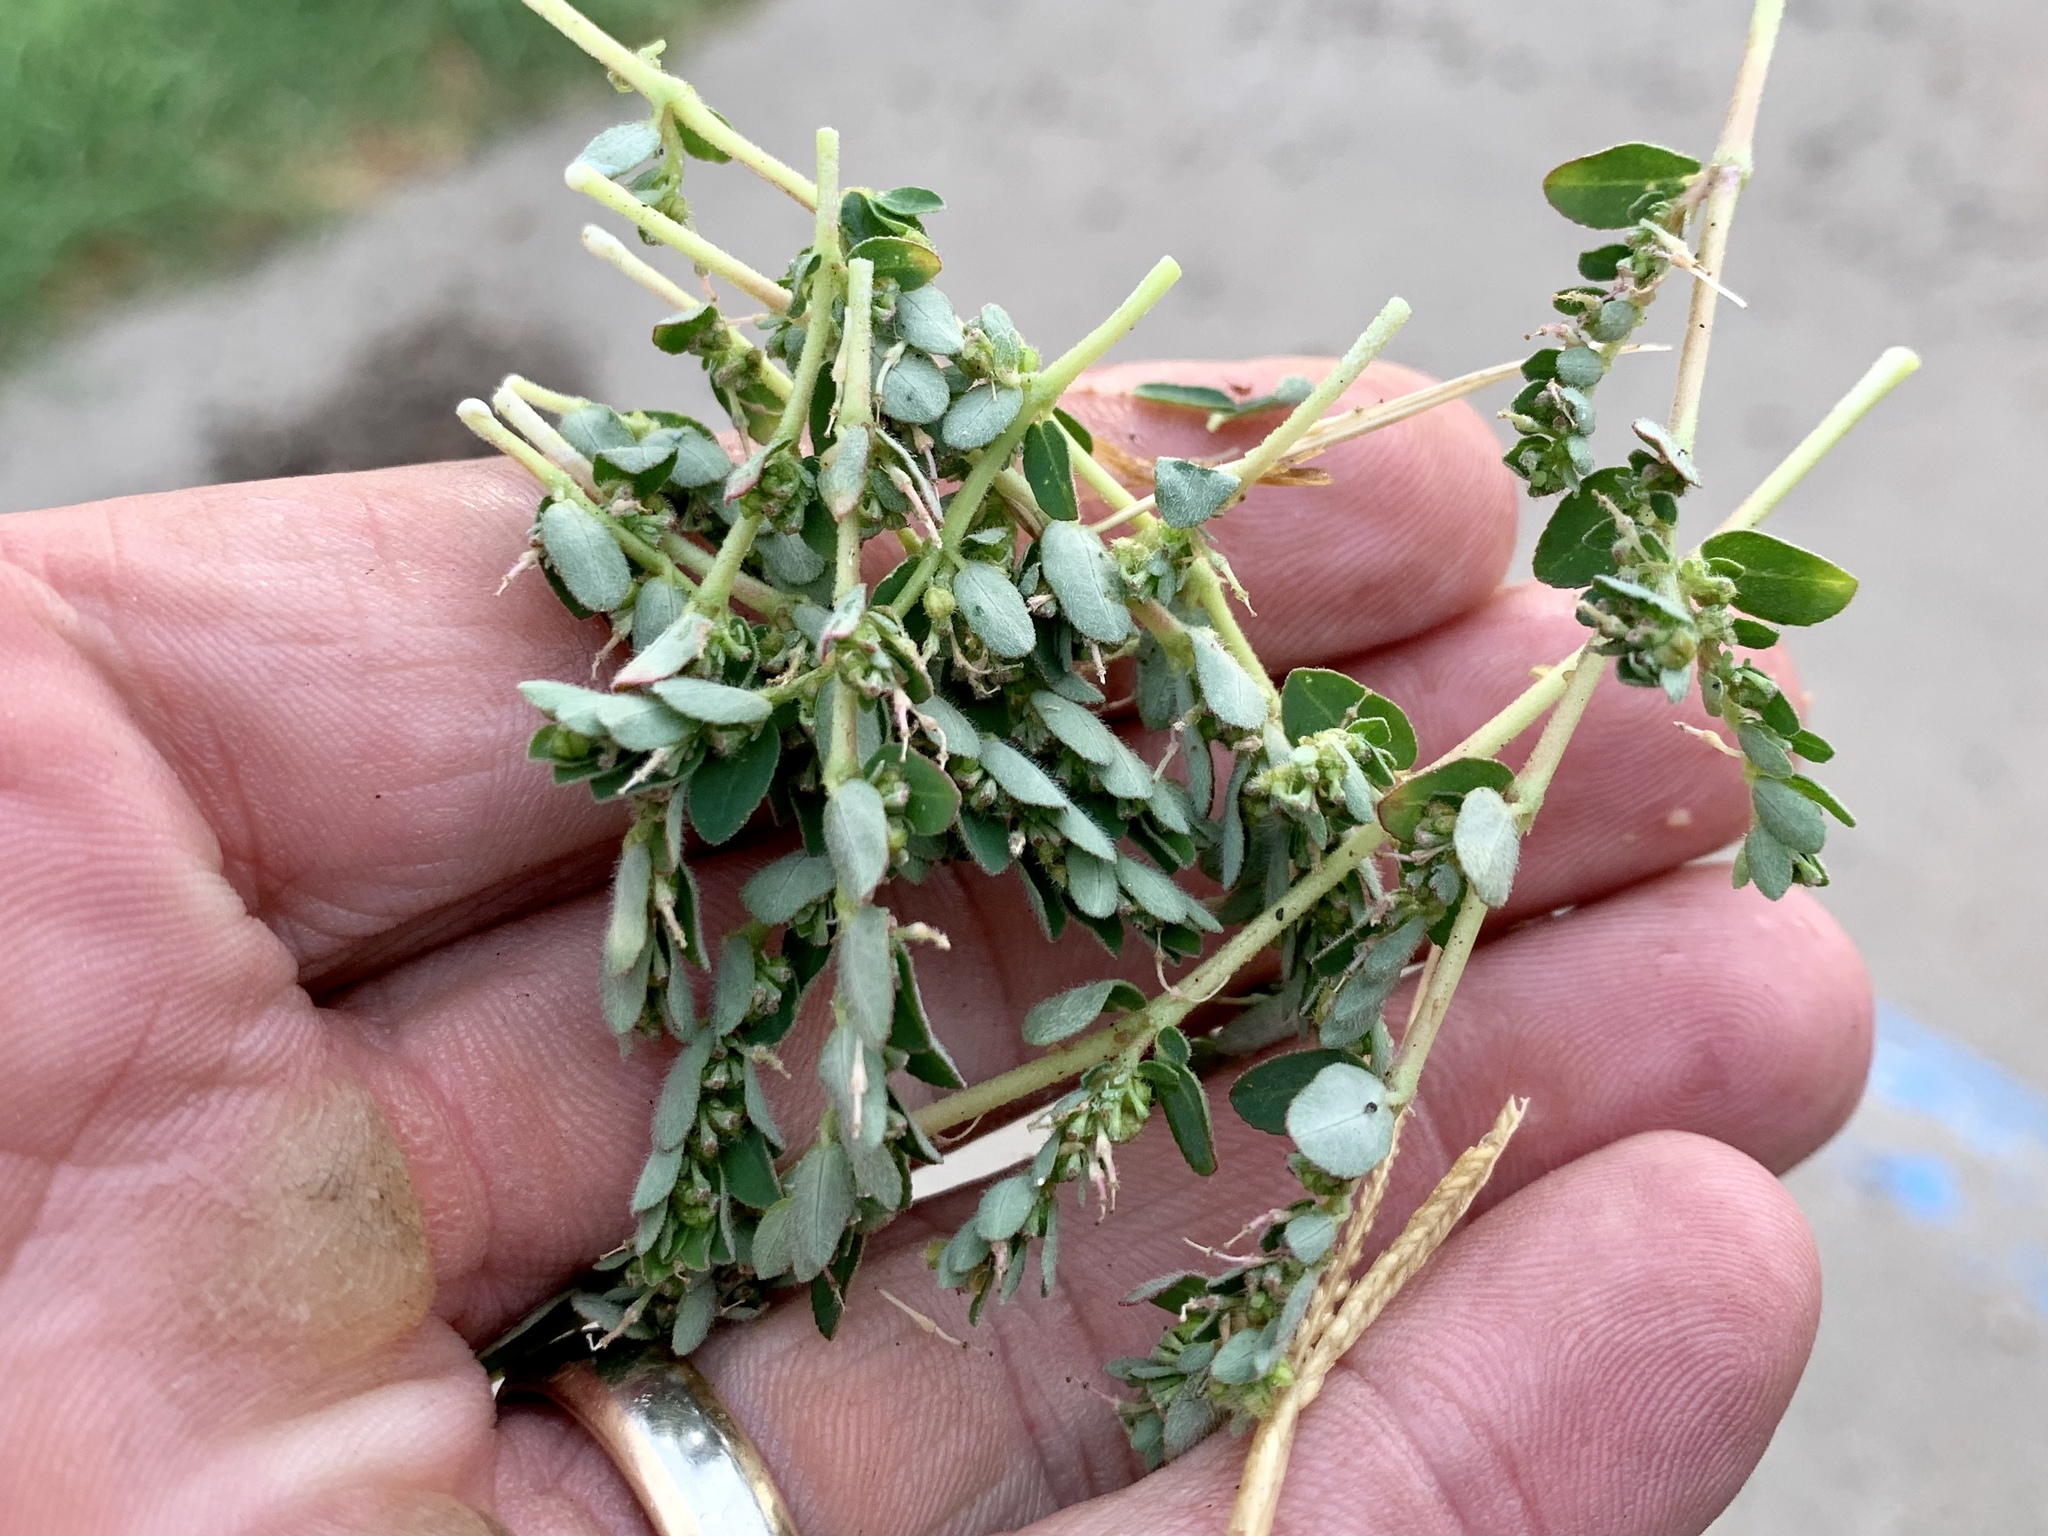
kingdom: Plantae
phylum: Tracheophyta
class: Magnoliopsida
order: Malpighiales
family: Euphorbiaceae
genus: Euphorbia
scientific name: Euphorbia prostrata
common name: Prostrate sandmat
